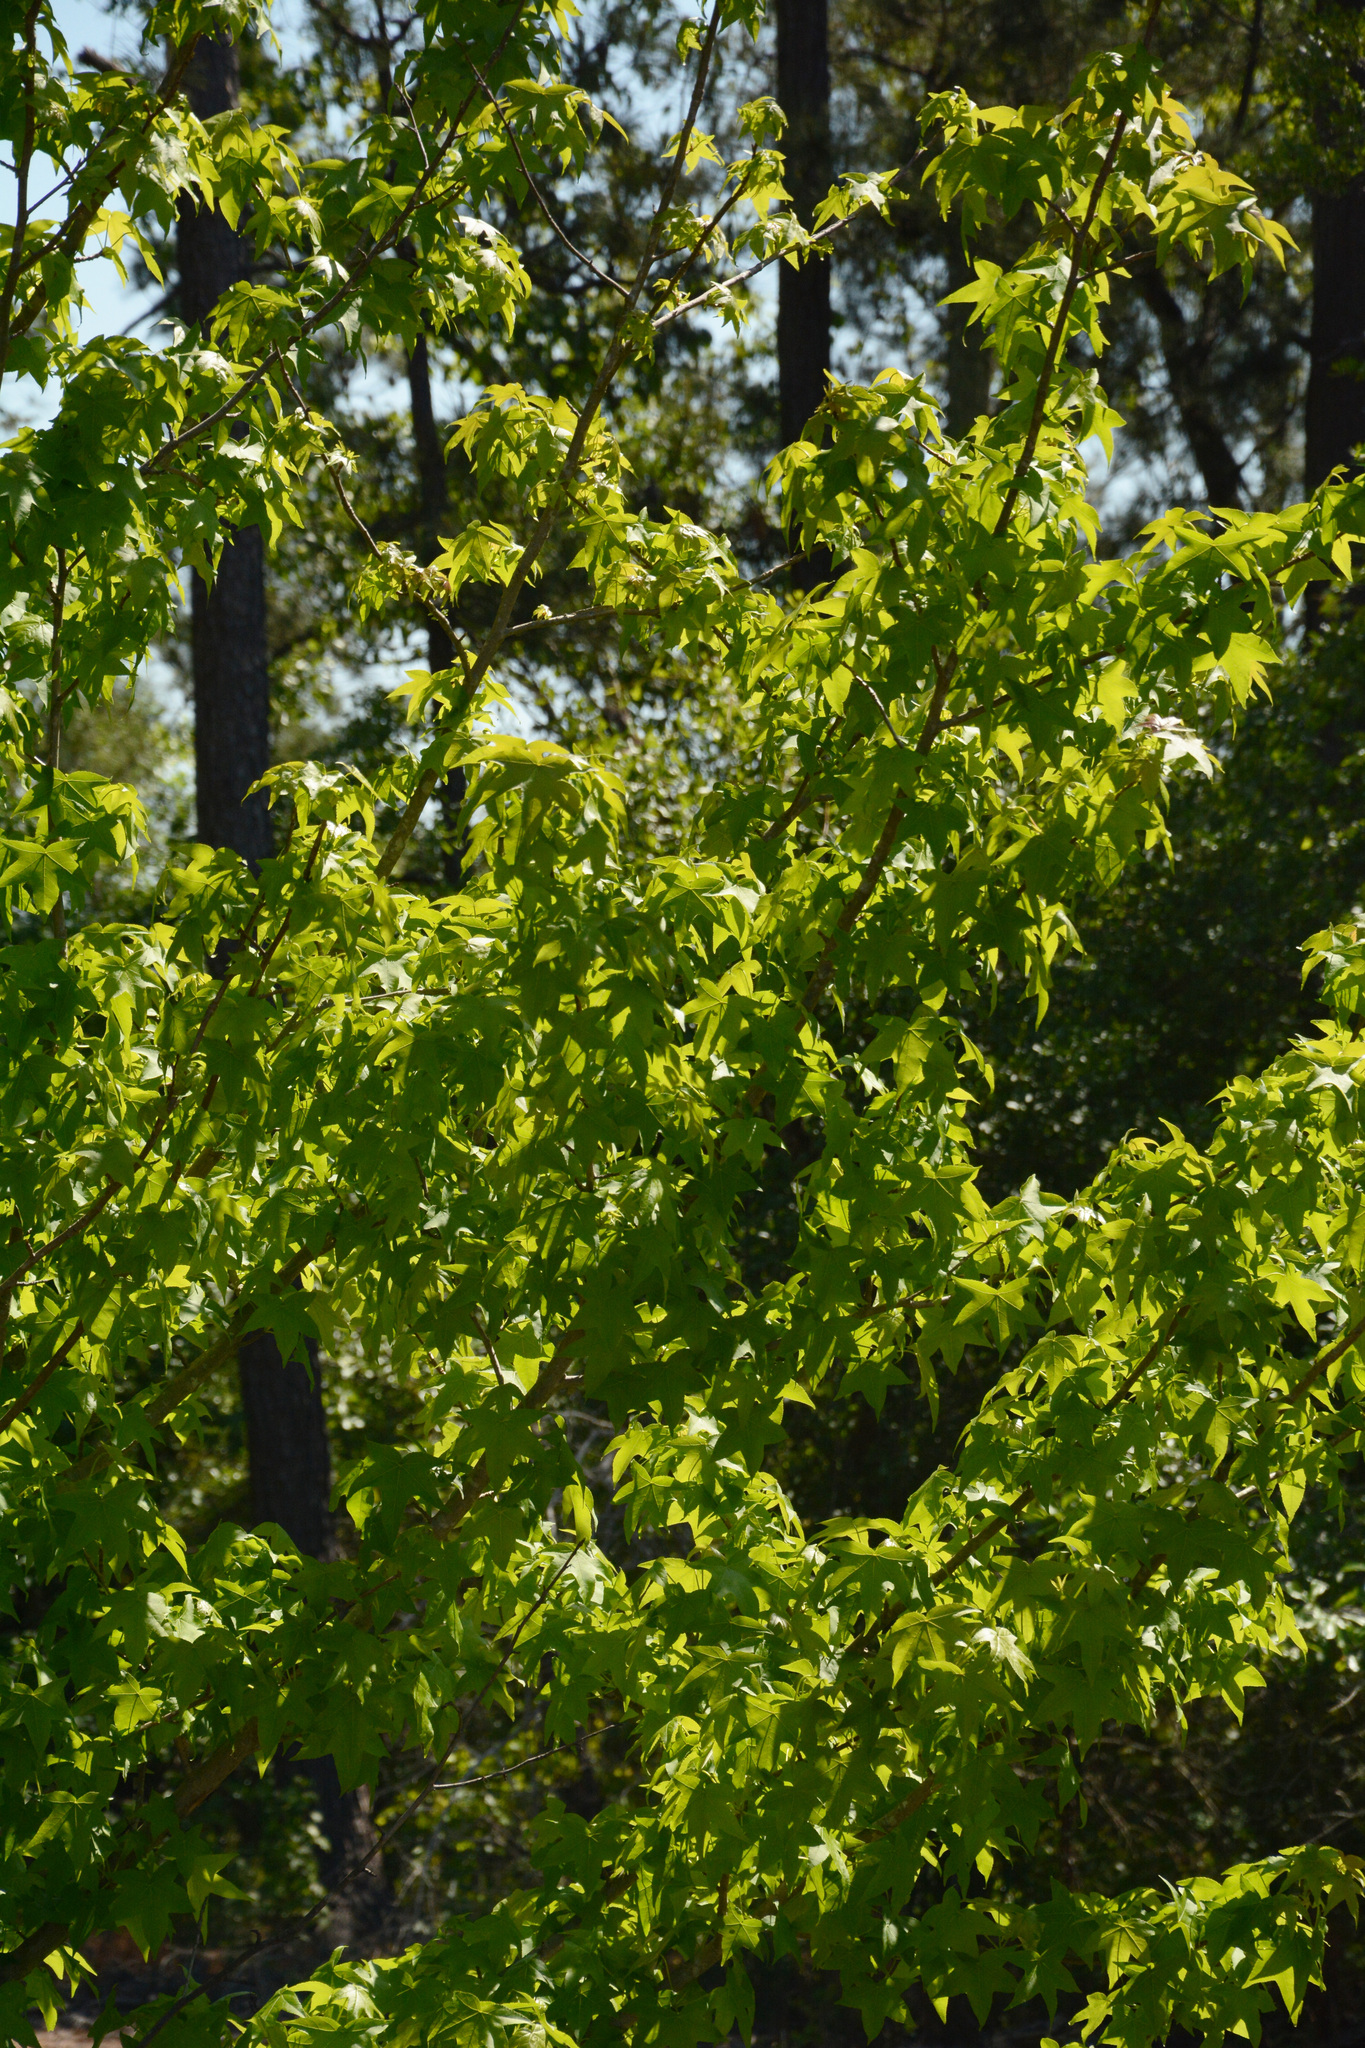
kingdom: Plantae
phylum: Tracheophyta
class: Magnoliopsida
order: Saxifragales
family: Altingiaceae
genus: Liquidambar
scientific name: Liquidambar styraciflua
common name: Sweet gum
